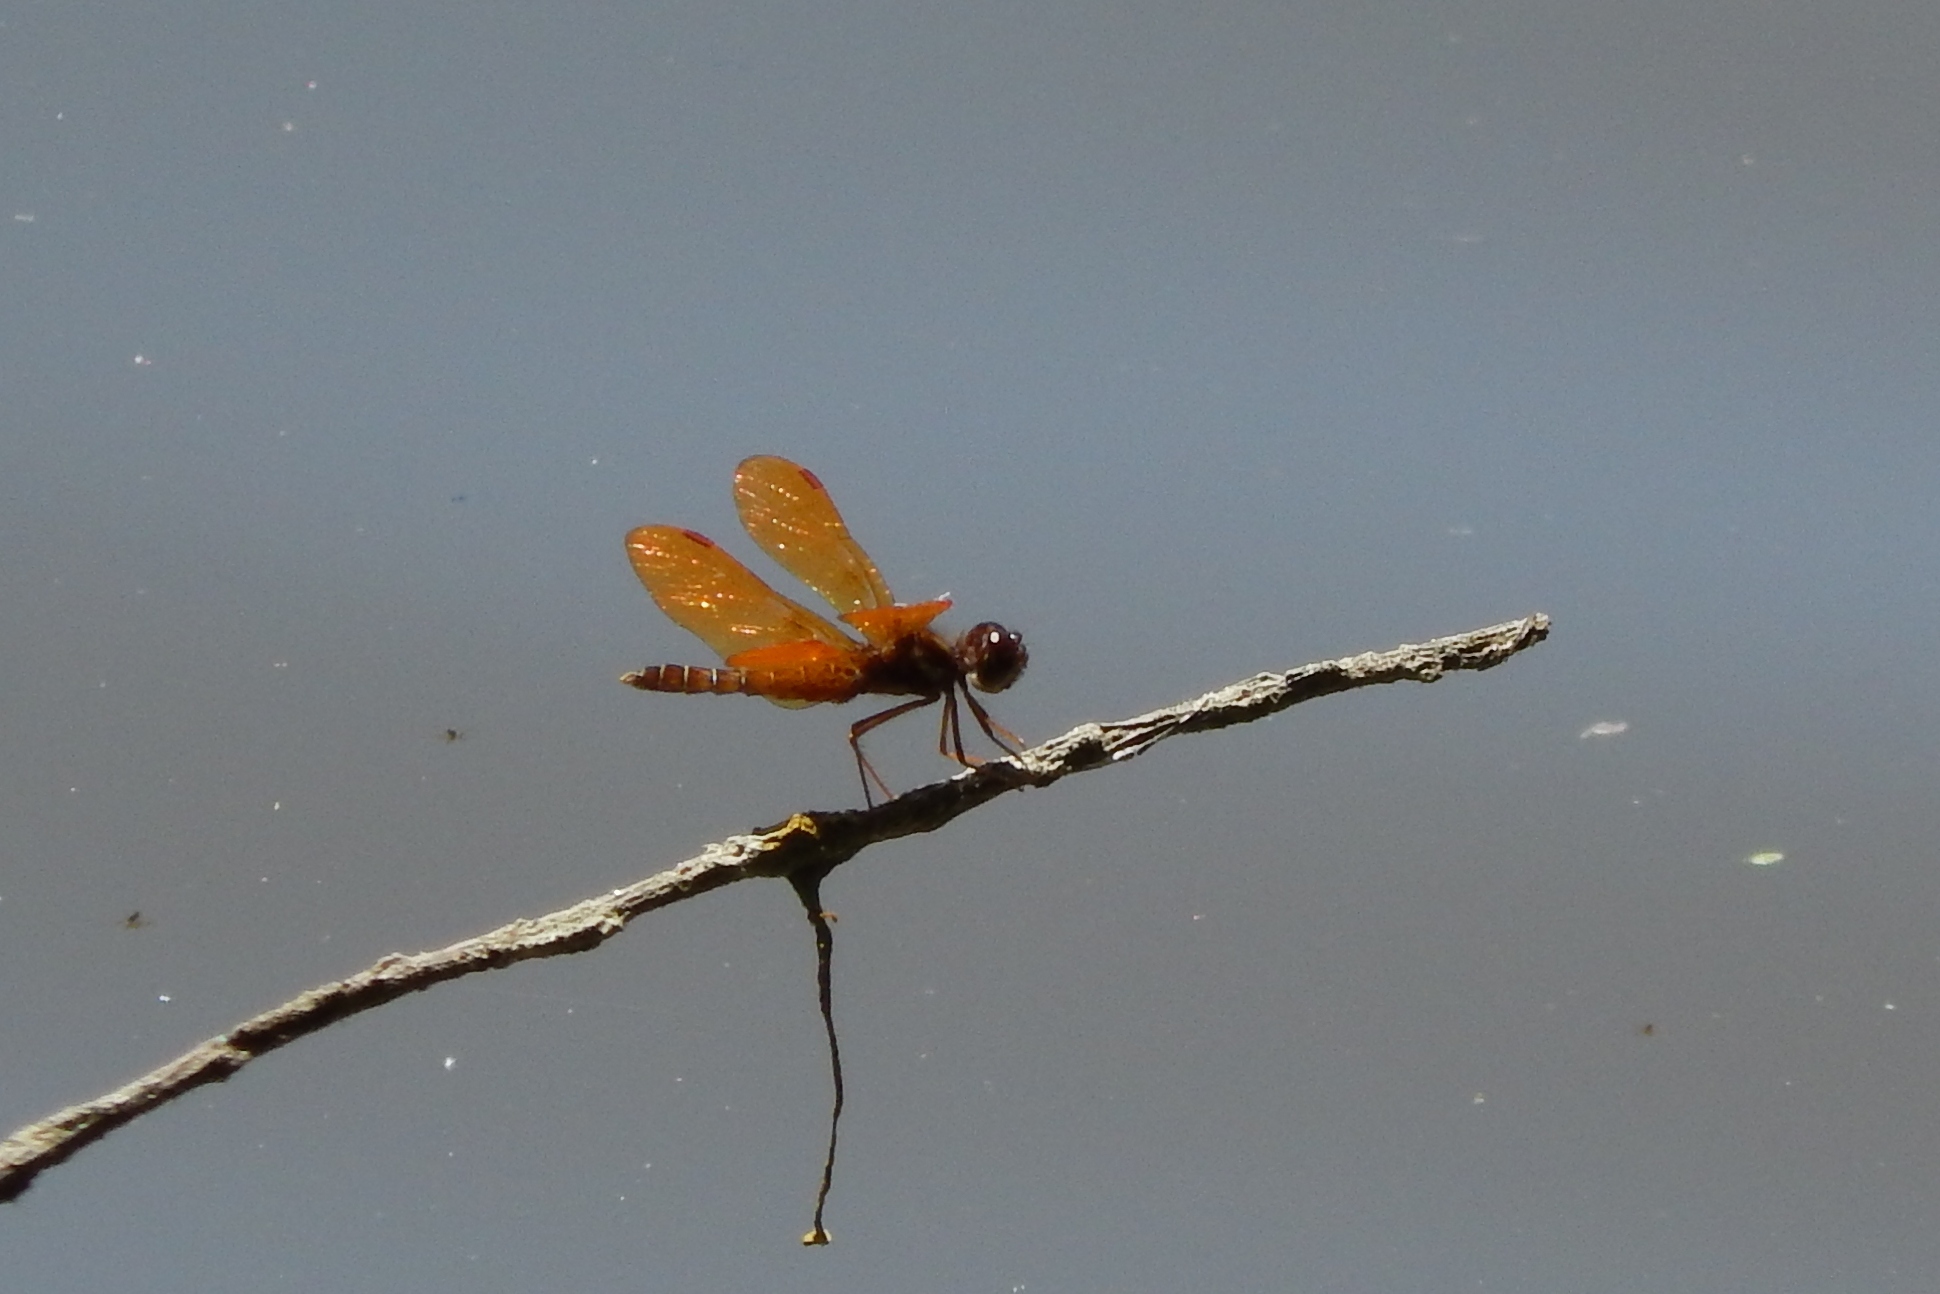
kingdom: Animalia
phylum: Arthropoda
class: Insecta
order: Odonata
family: Libellulidae
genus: Perithemis
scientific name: Perithemis tenera
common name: Eastern amberwing
